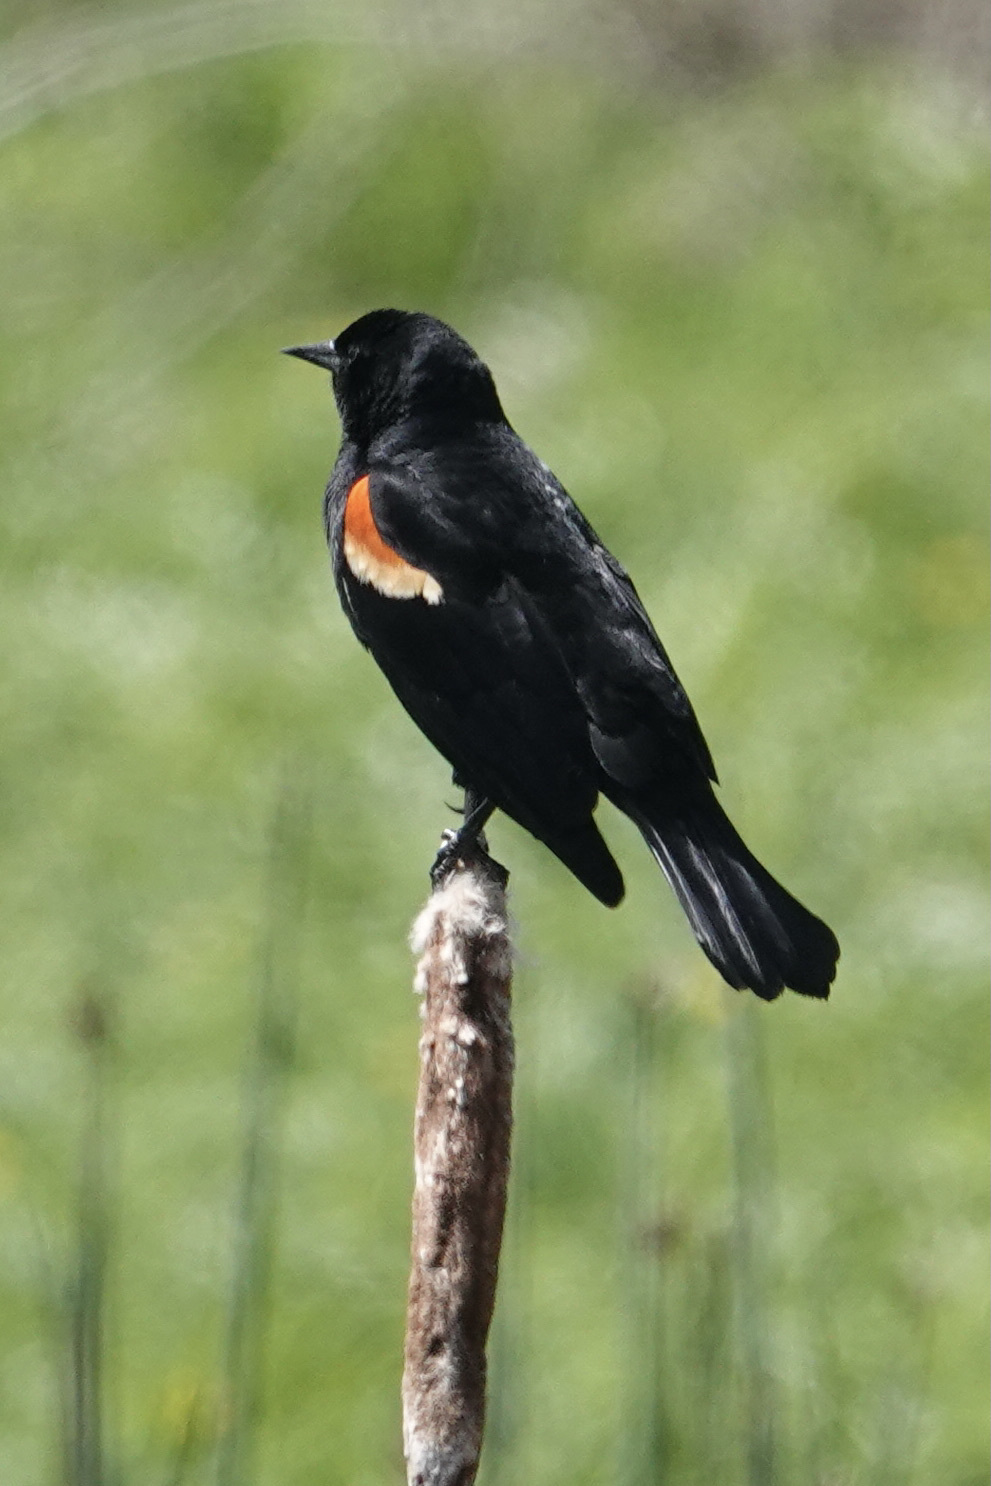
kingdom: Animalia
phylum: Chordata
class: Aves
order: Passeriformes
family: Icteridae
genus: Agelaius
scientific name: Agelaius phoeniceus
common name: Red-winged blackbird
